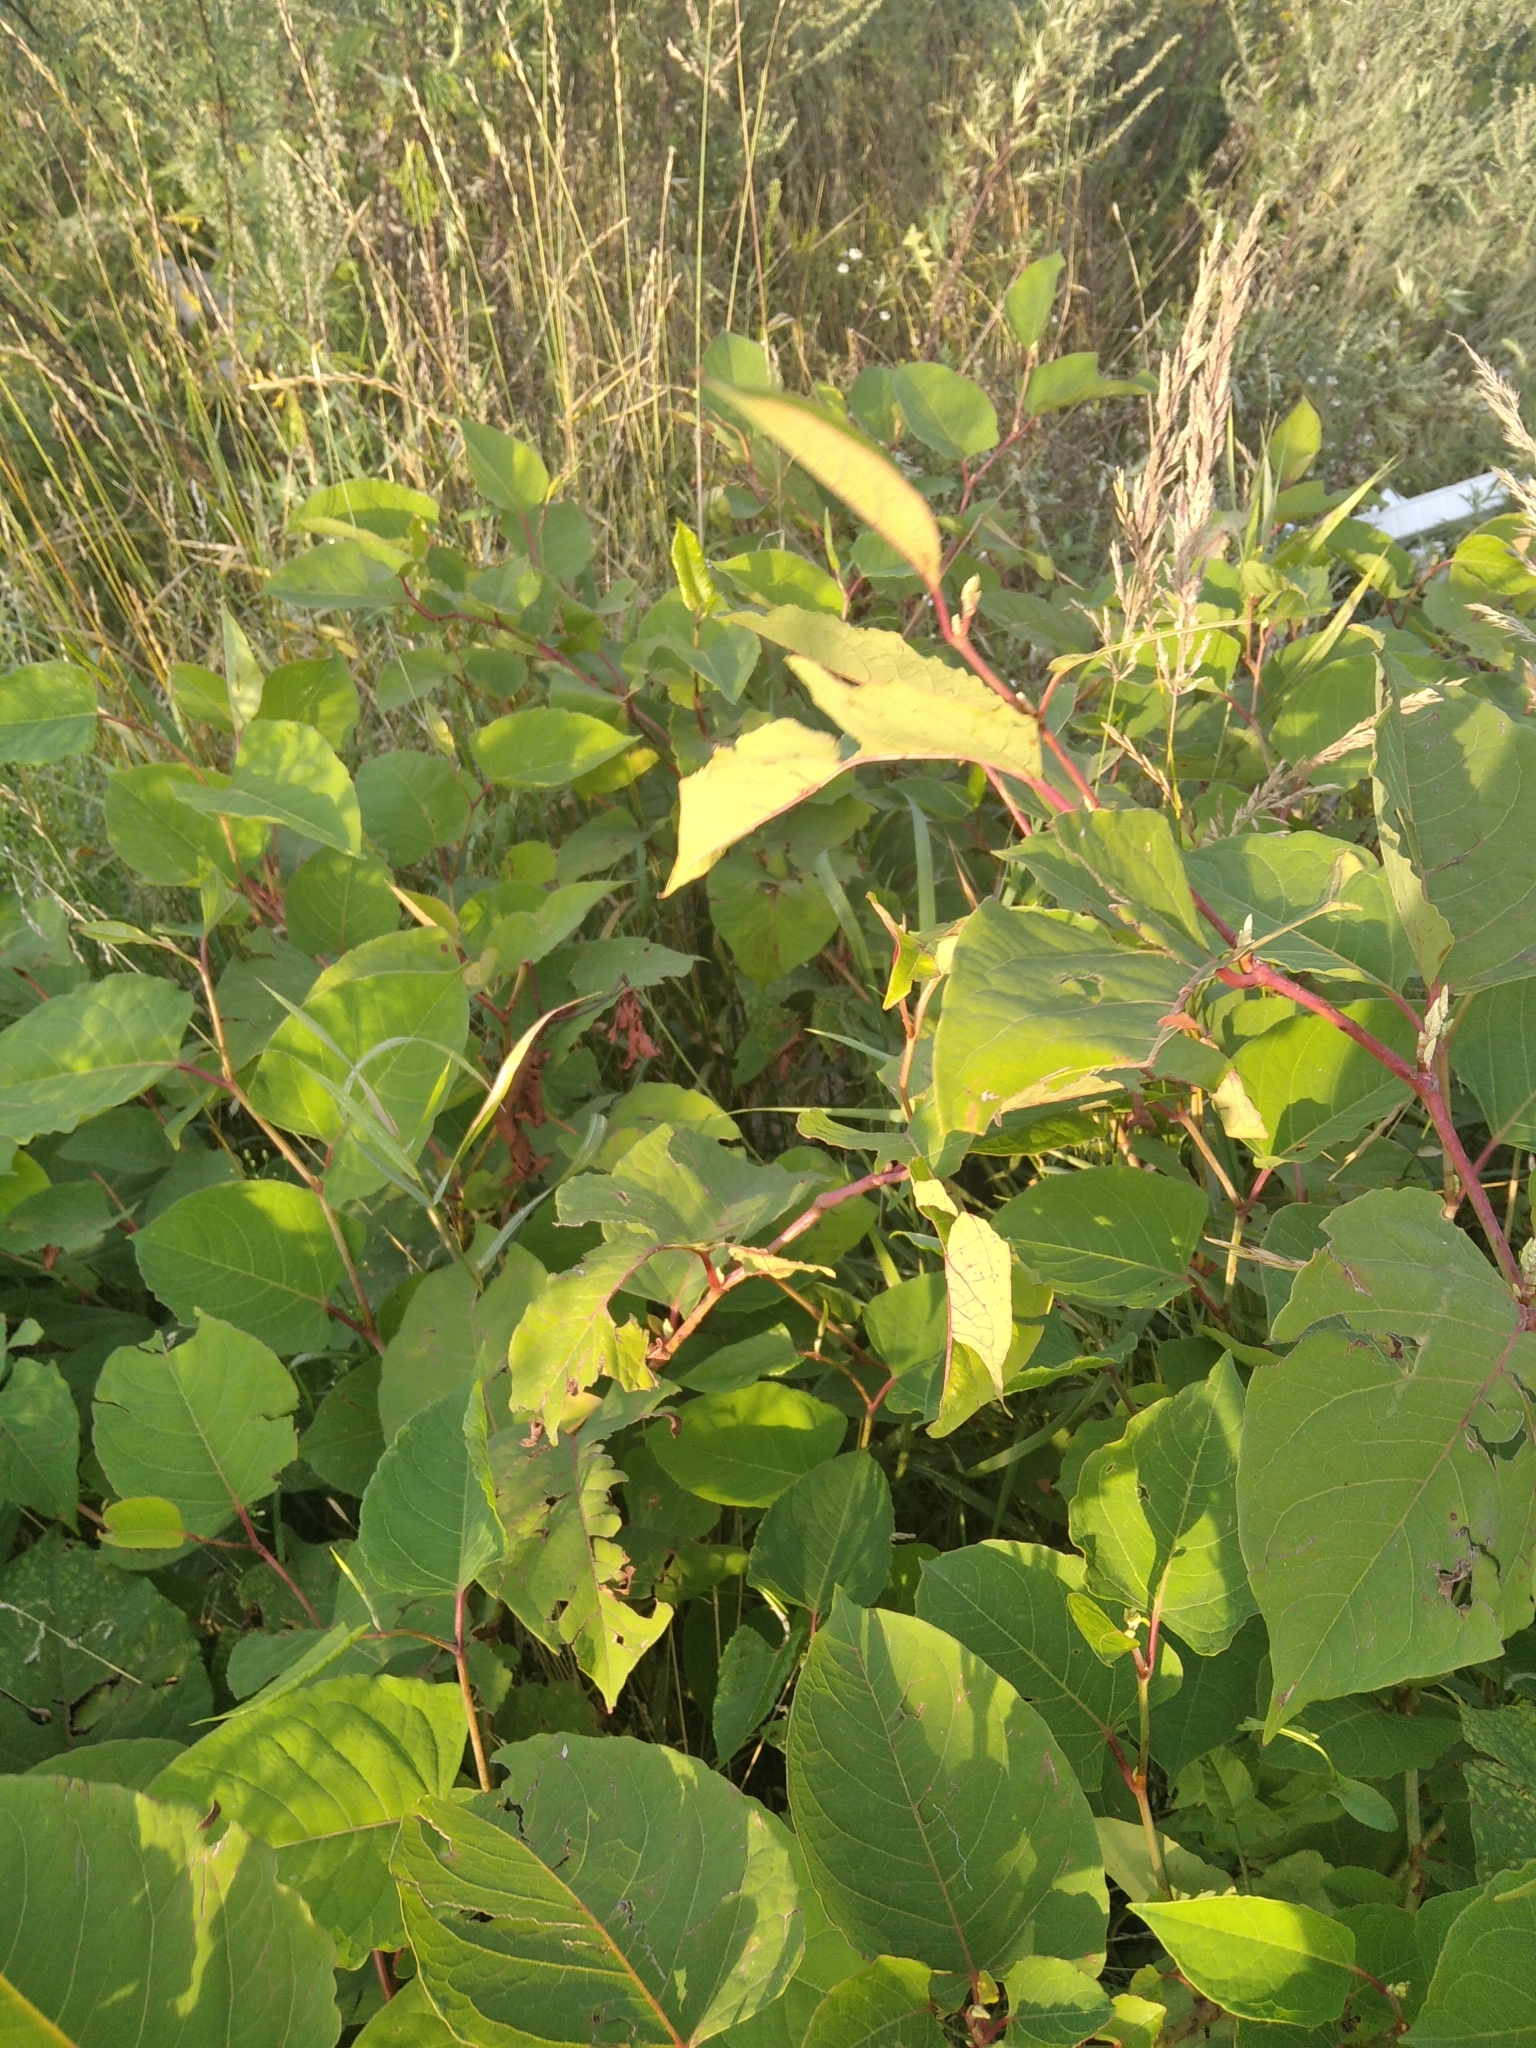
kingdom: Plantae
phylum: Tracheophyta
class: Magnoliopsida
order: Caryophyllales
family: Polygonaceae
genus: Reynoutria
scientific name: Reynoutria bohemica
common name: Bohemian knotweed
